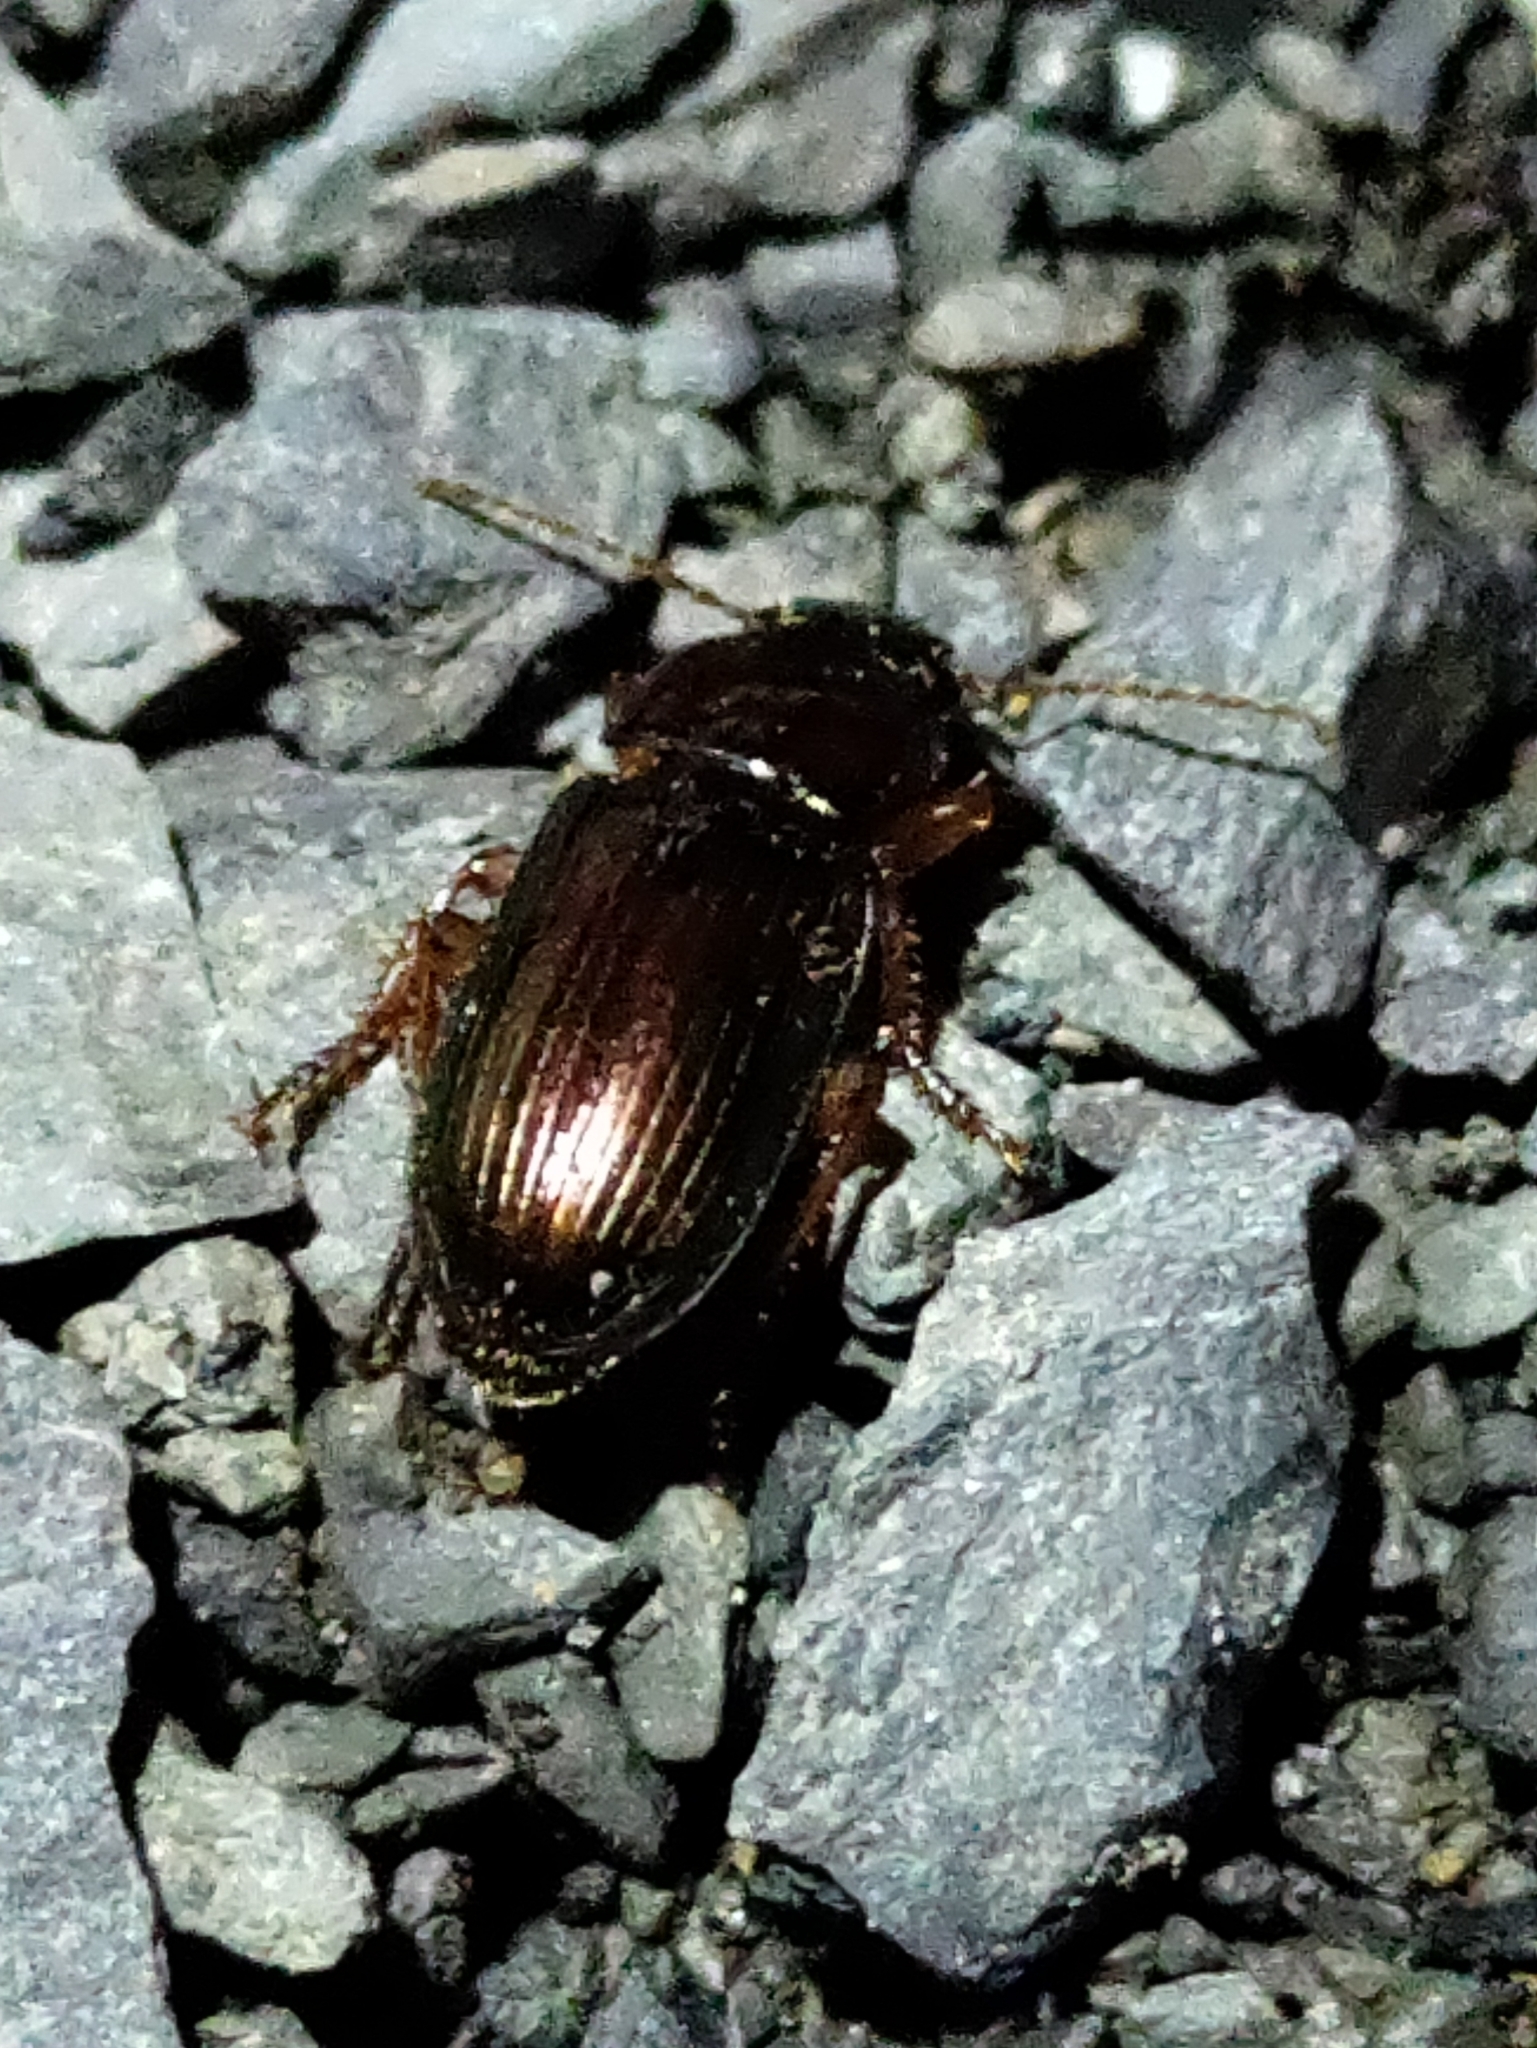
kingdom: Animalia
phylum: Arthropoda
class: Insecta
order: Coleoptera
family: Carabidae
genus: Harpalus
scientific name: Harpalus affinis
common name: Polychrome harp ground beetle
